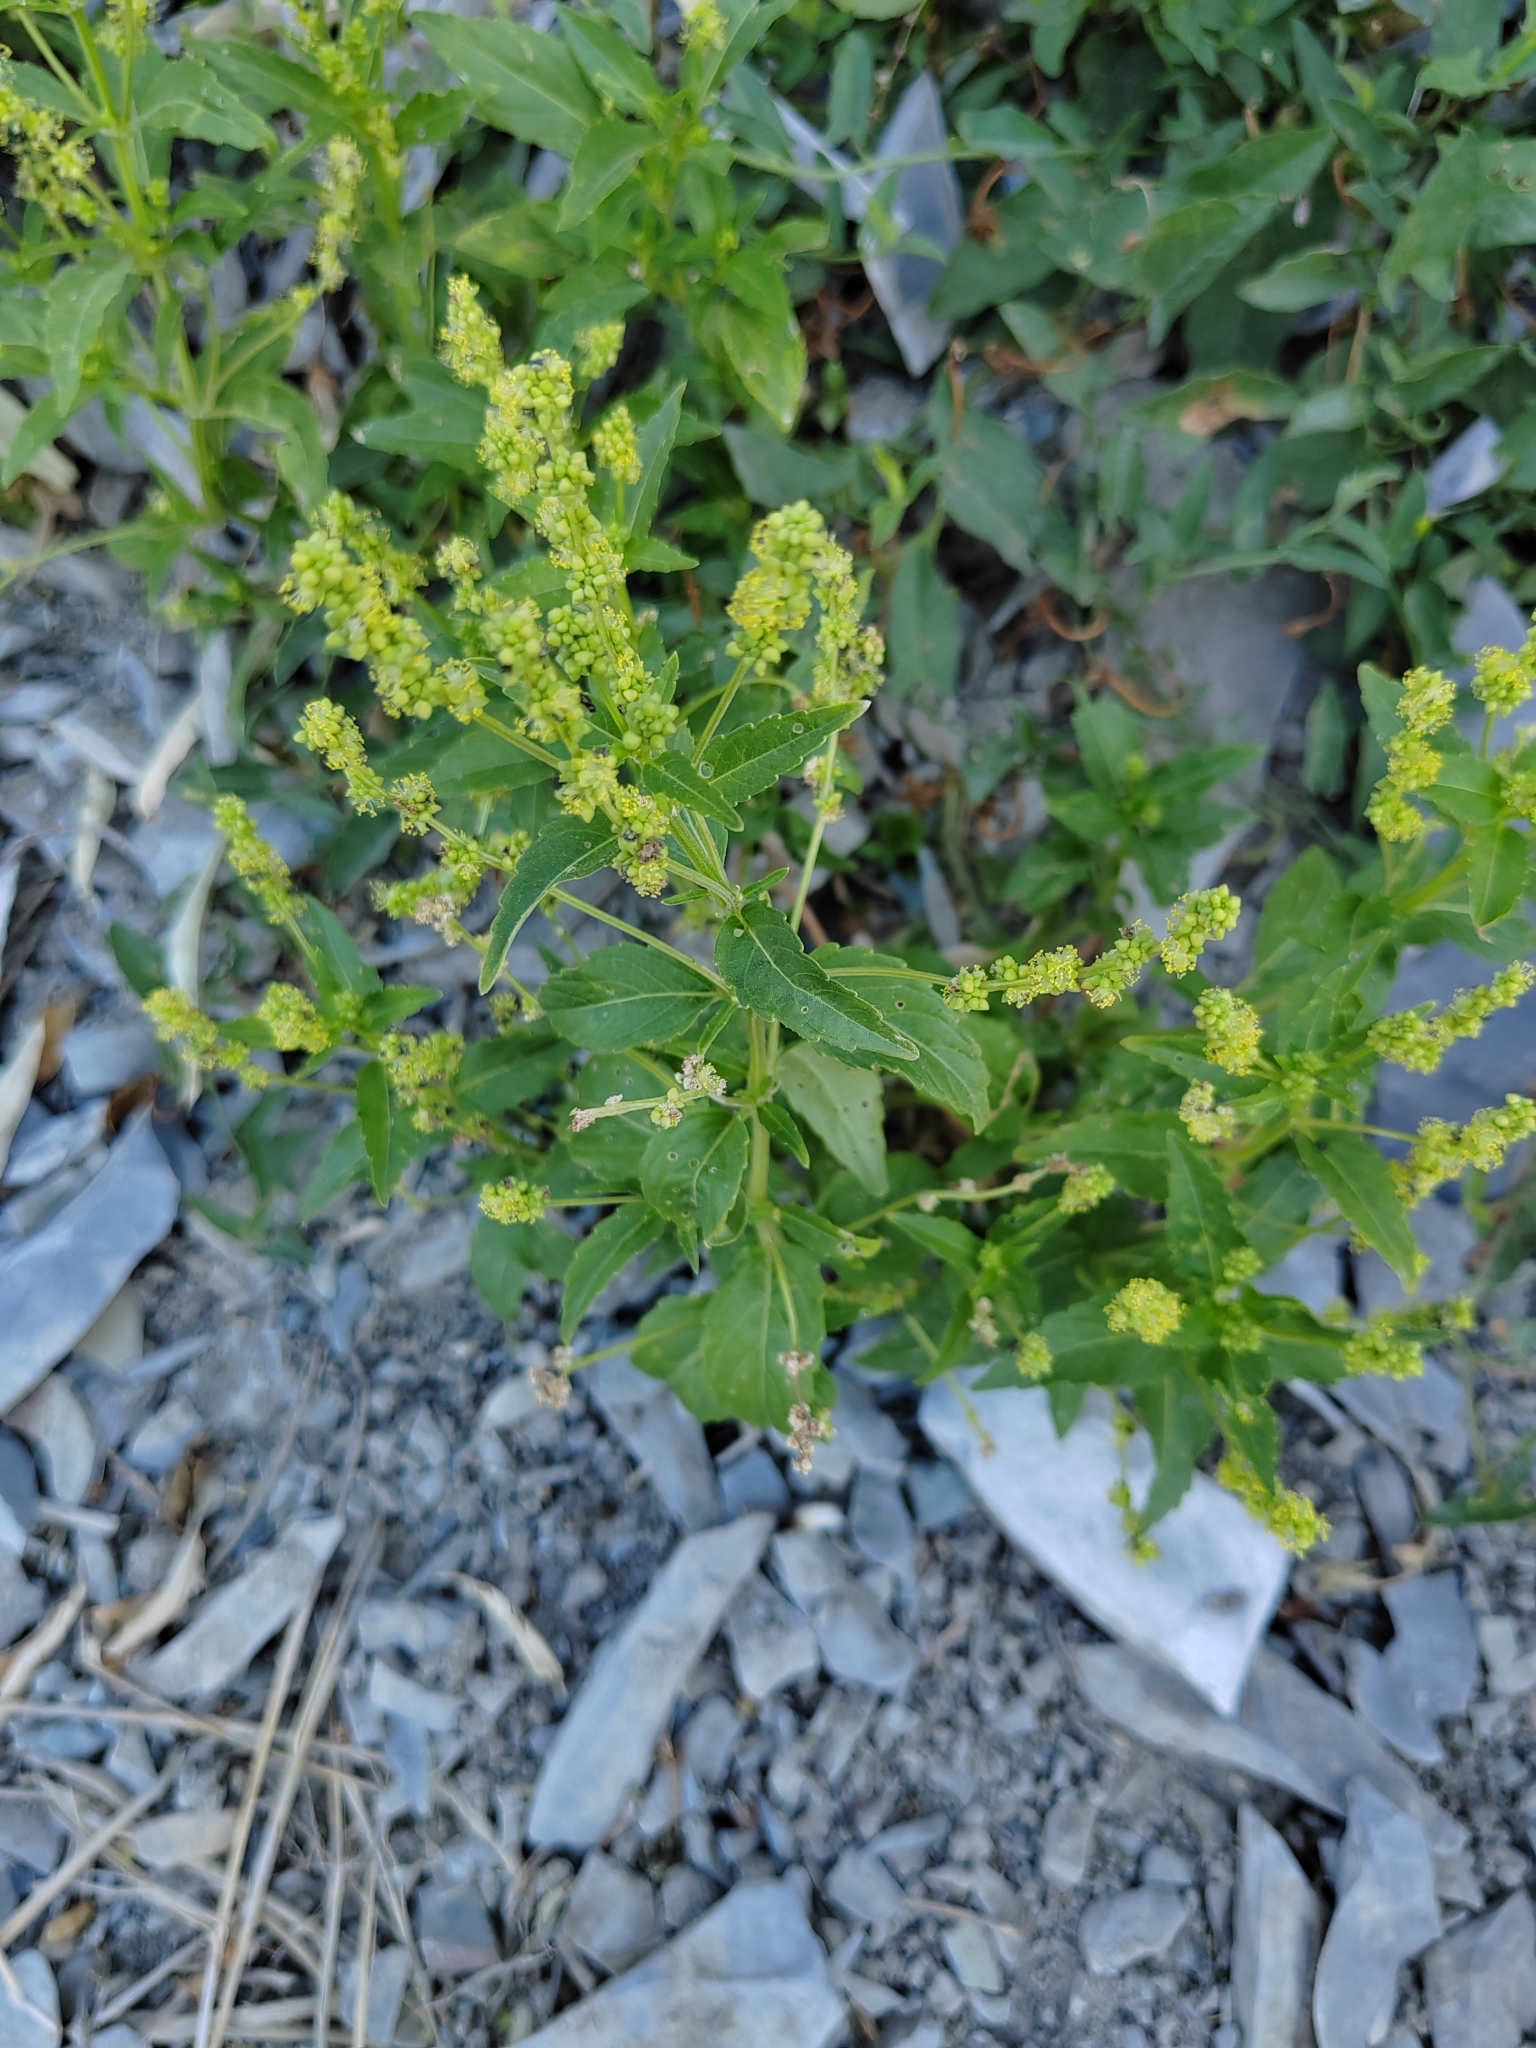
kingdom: Plantae
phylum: Tracheophyta
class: Magnoliopsida
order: Malpighiales
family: Euphorbiaceae
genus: Mercurialis
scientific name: Mercurialis annua
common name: Annual mercury
